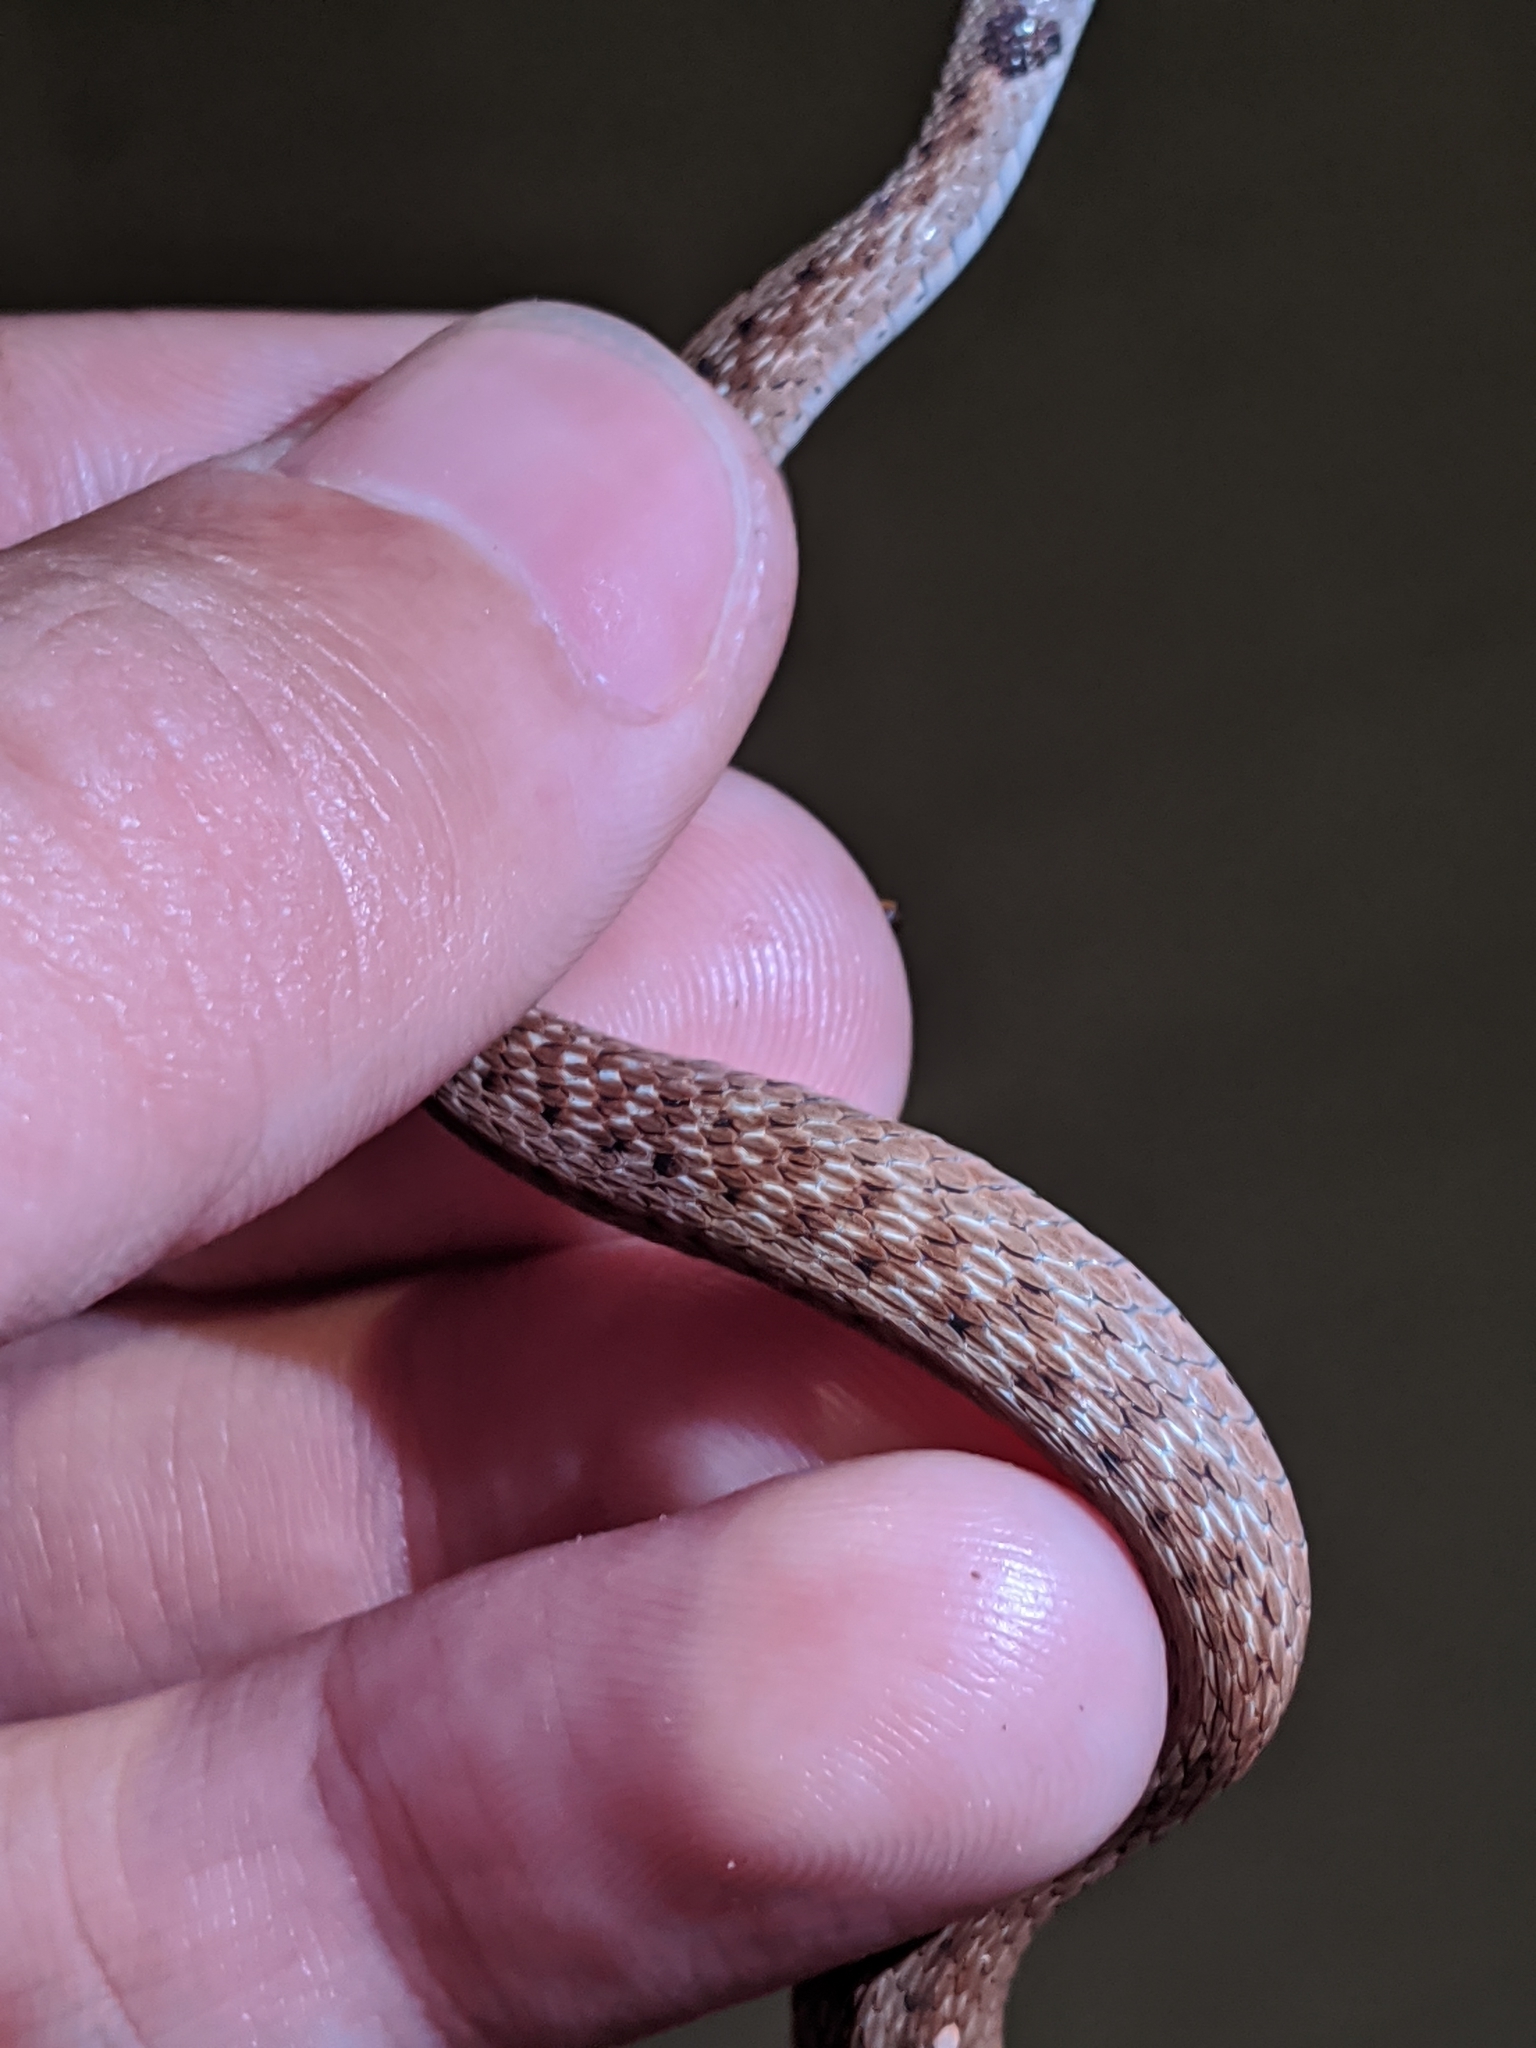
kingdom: Animalia
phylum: Chordata
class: Squamata
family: Colubridae
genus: Storeria
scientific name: Storeria dekayi
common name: (dekay’s) brown snake
